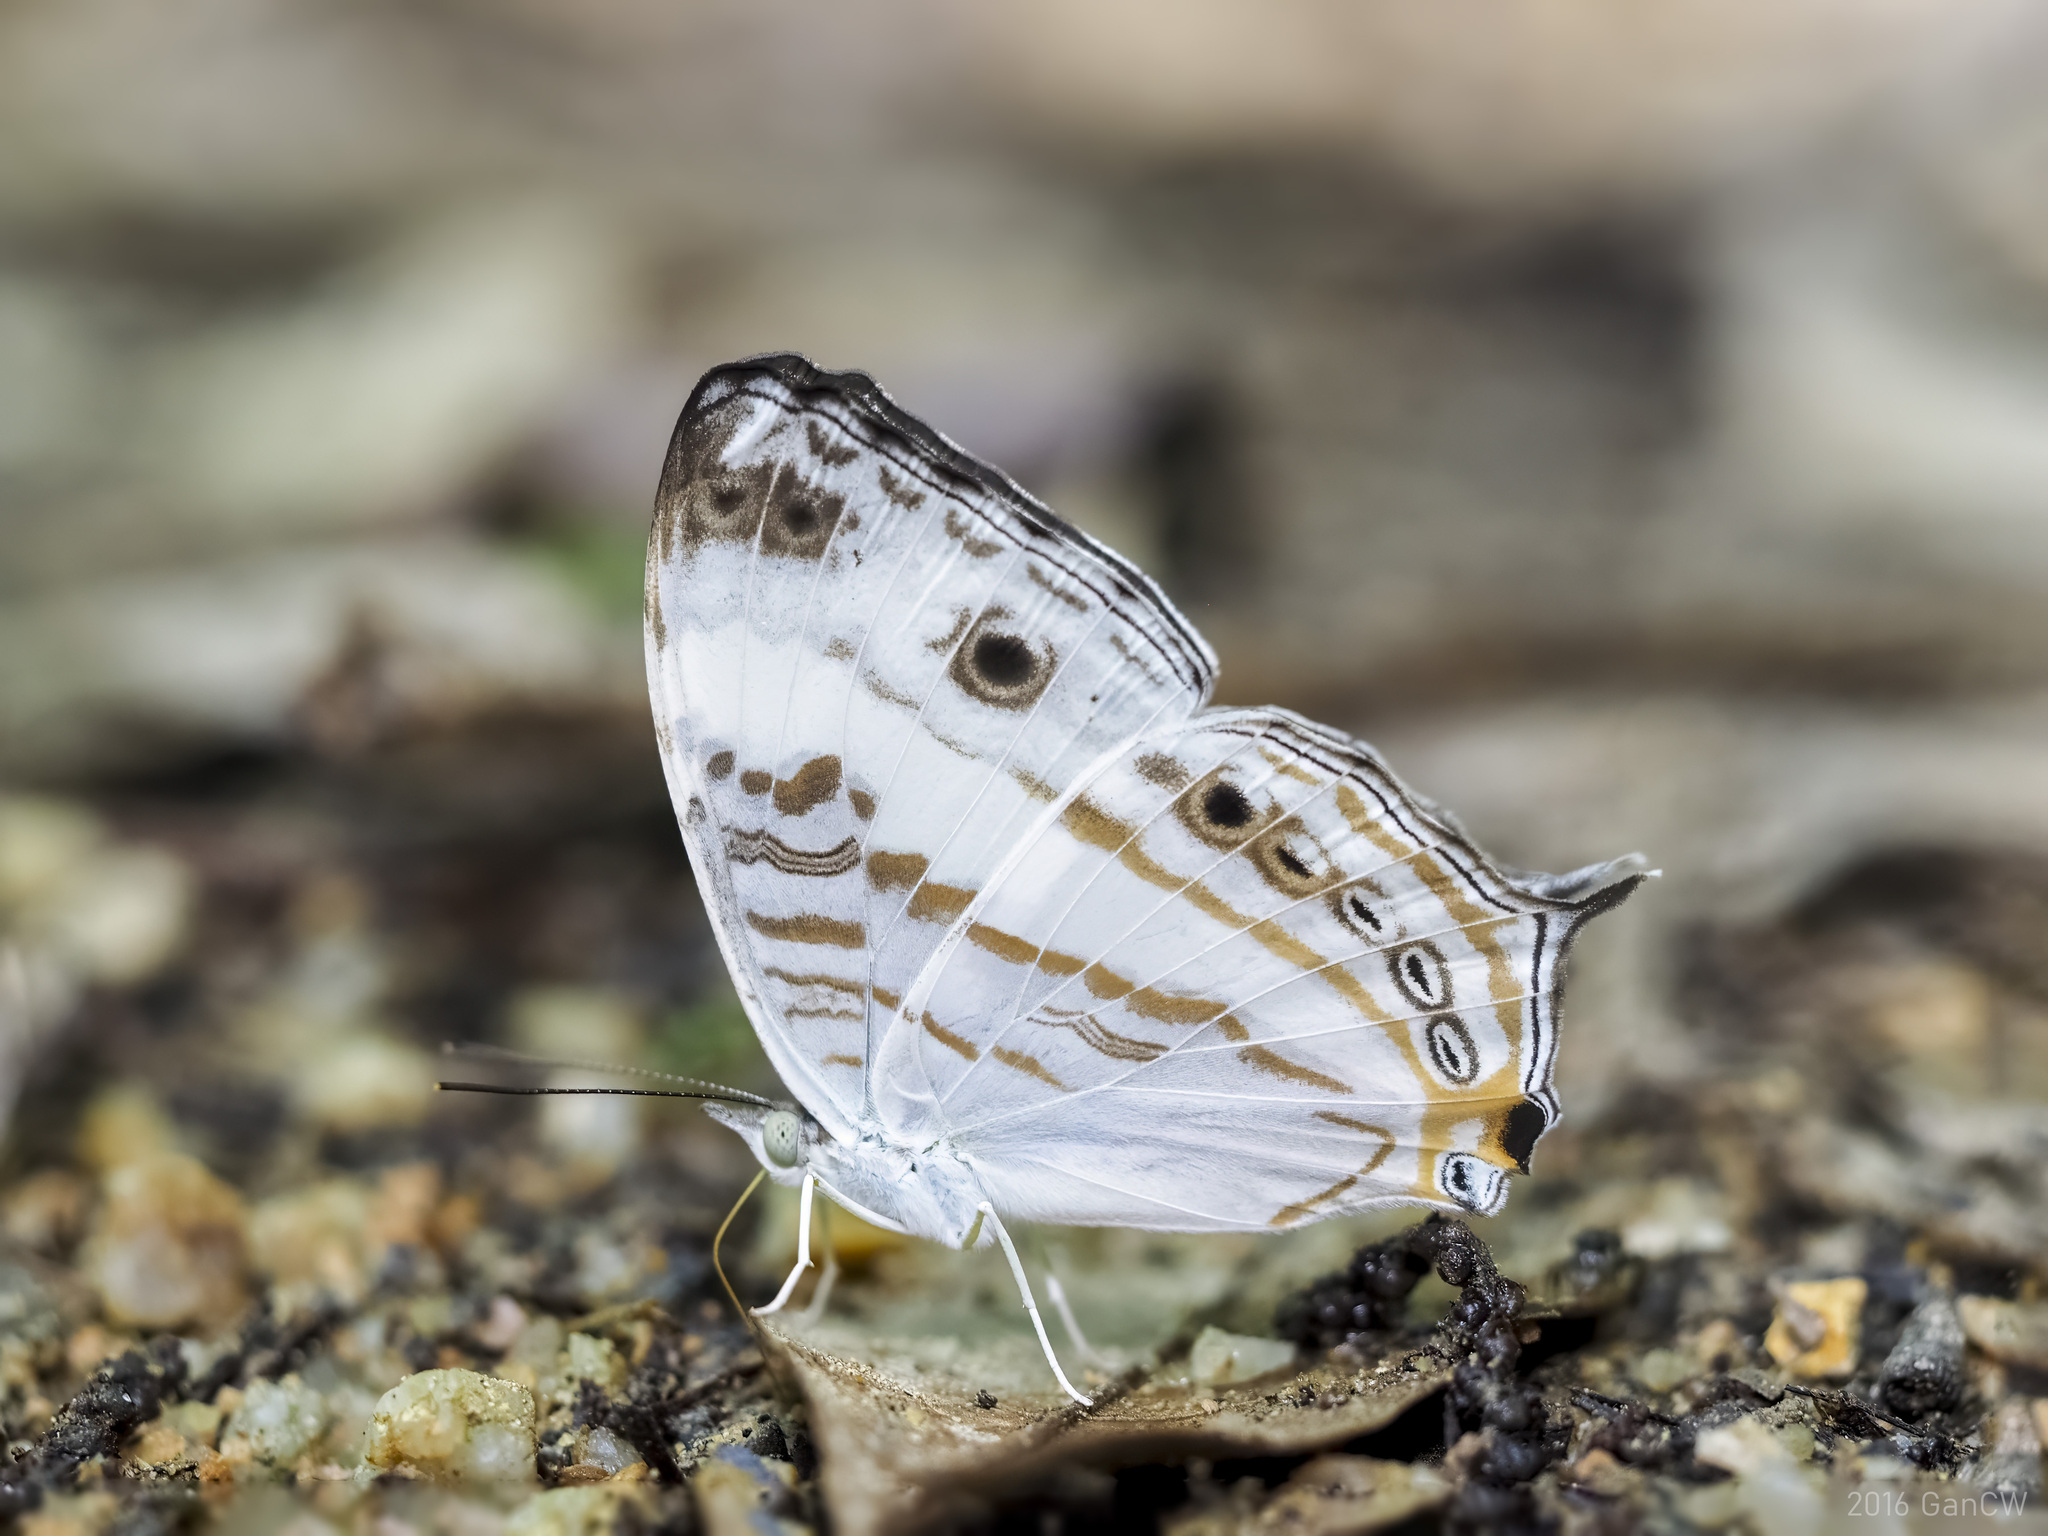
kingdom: Animalia
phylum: Arthropoda
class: Insecta
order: Lepidoptera
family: Nymphalidae
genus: Cyrestis
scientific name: Cyrestis cocles
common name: Marbled map
